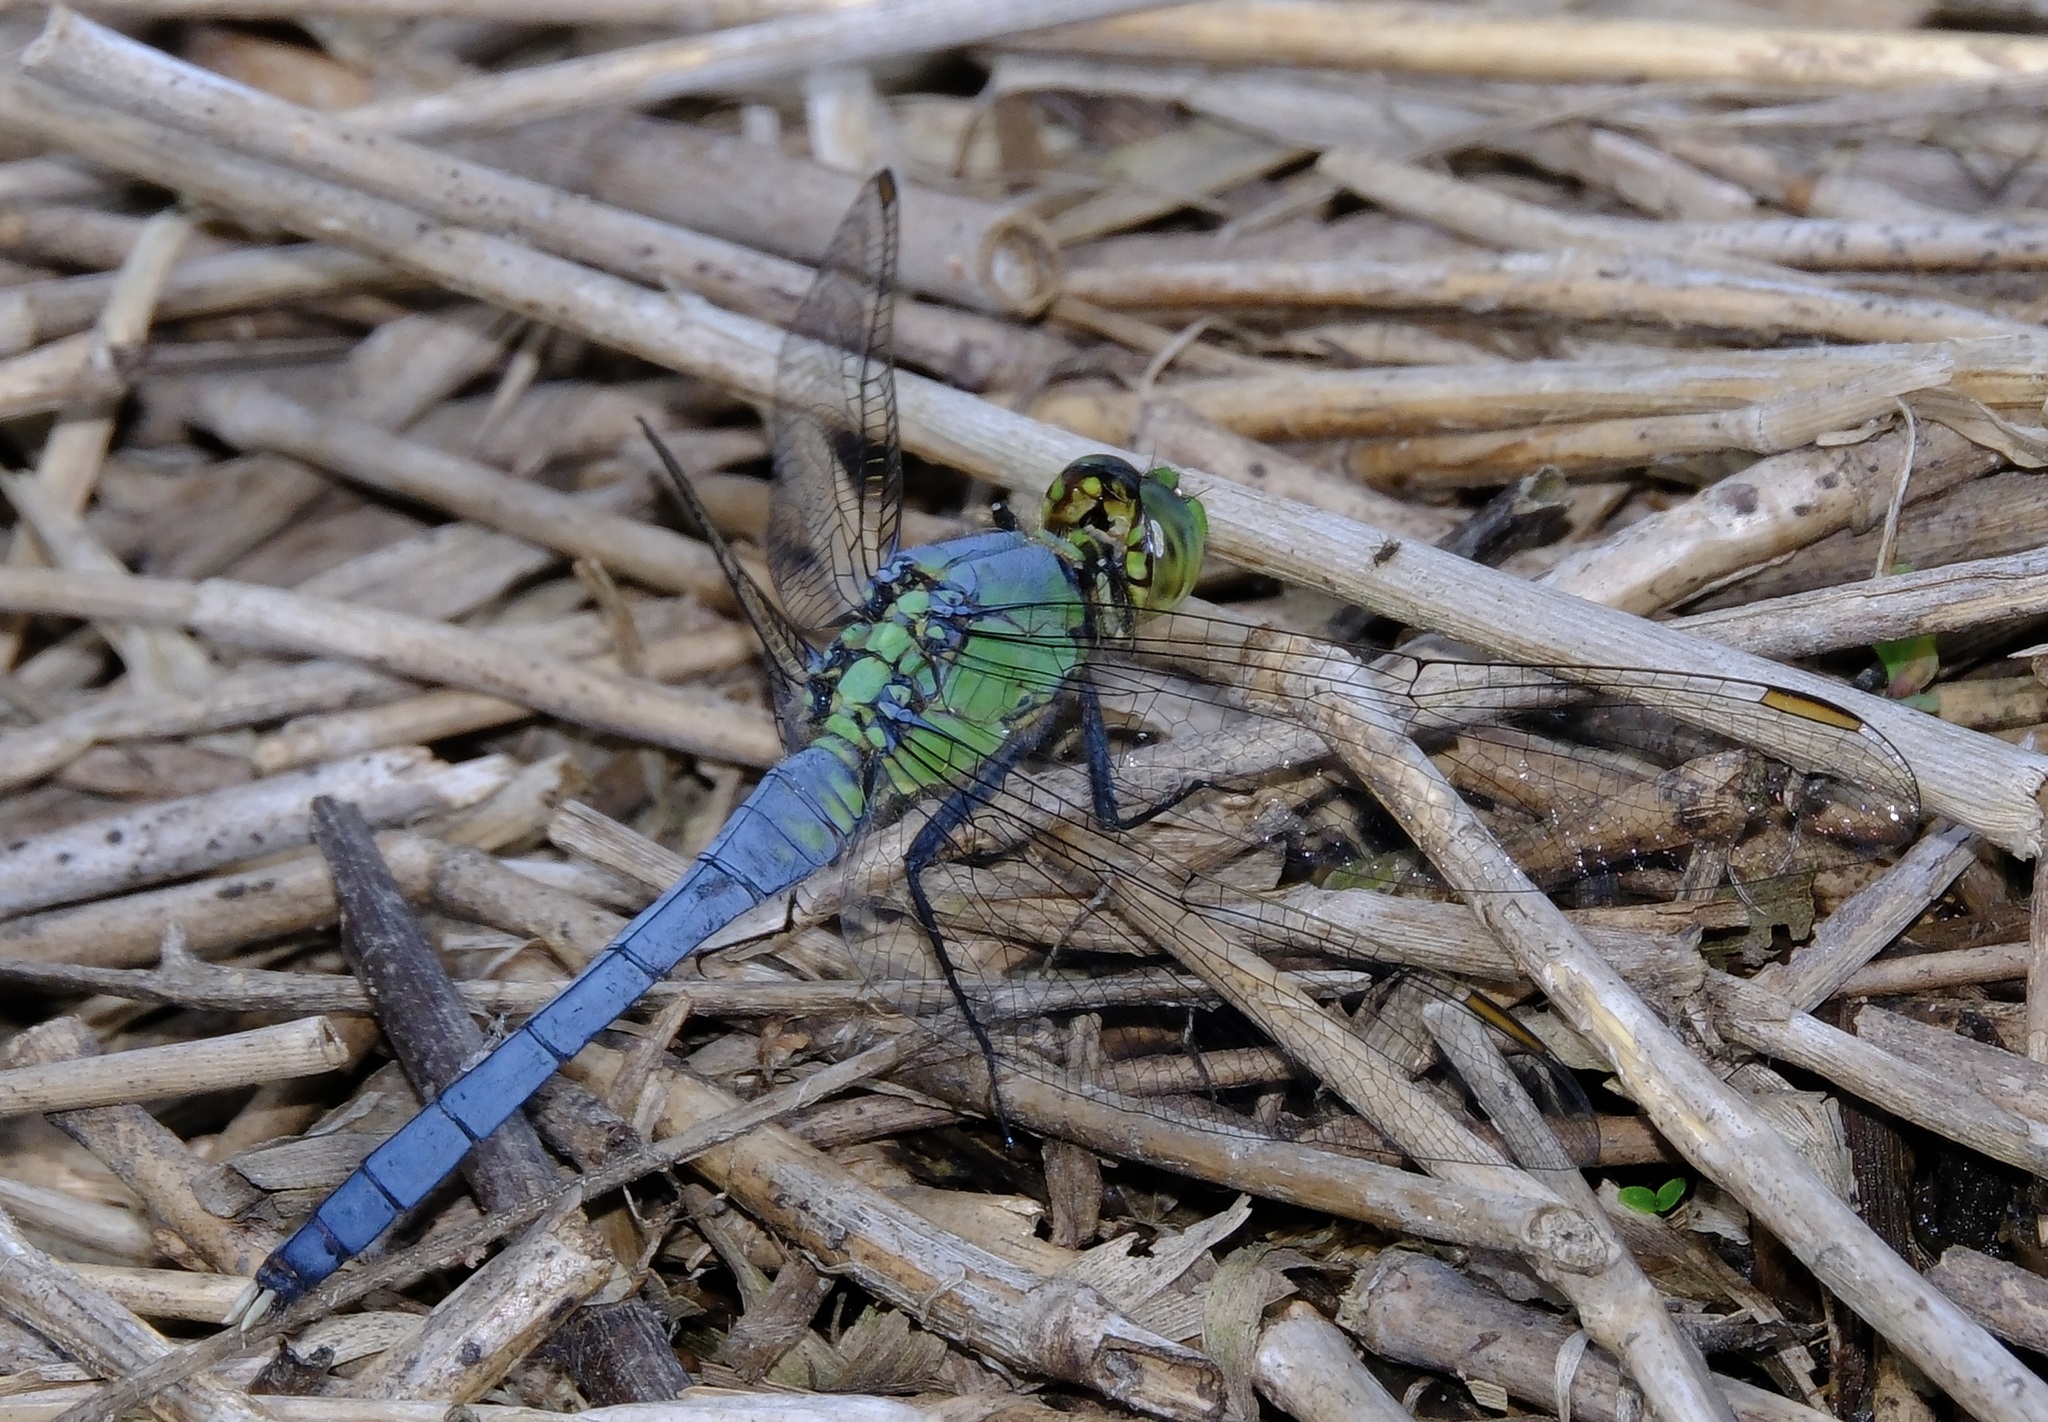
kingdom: Animalia
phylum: Arthropoda
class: Insecta
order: Odonata
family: Libellulidae
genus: Erythemis
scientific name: Erythemis simplicicollis
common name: Eastern pondhawk
